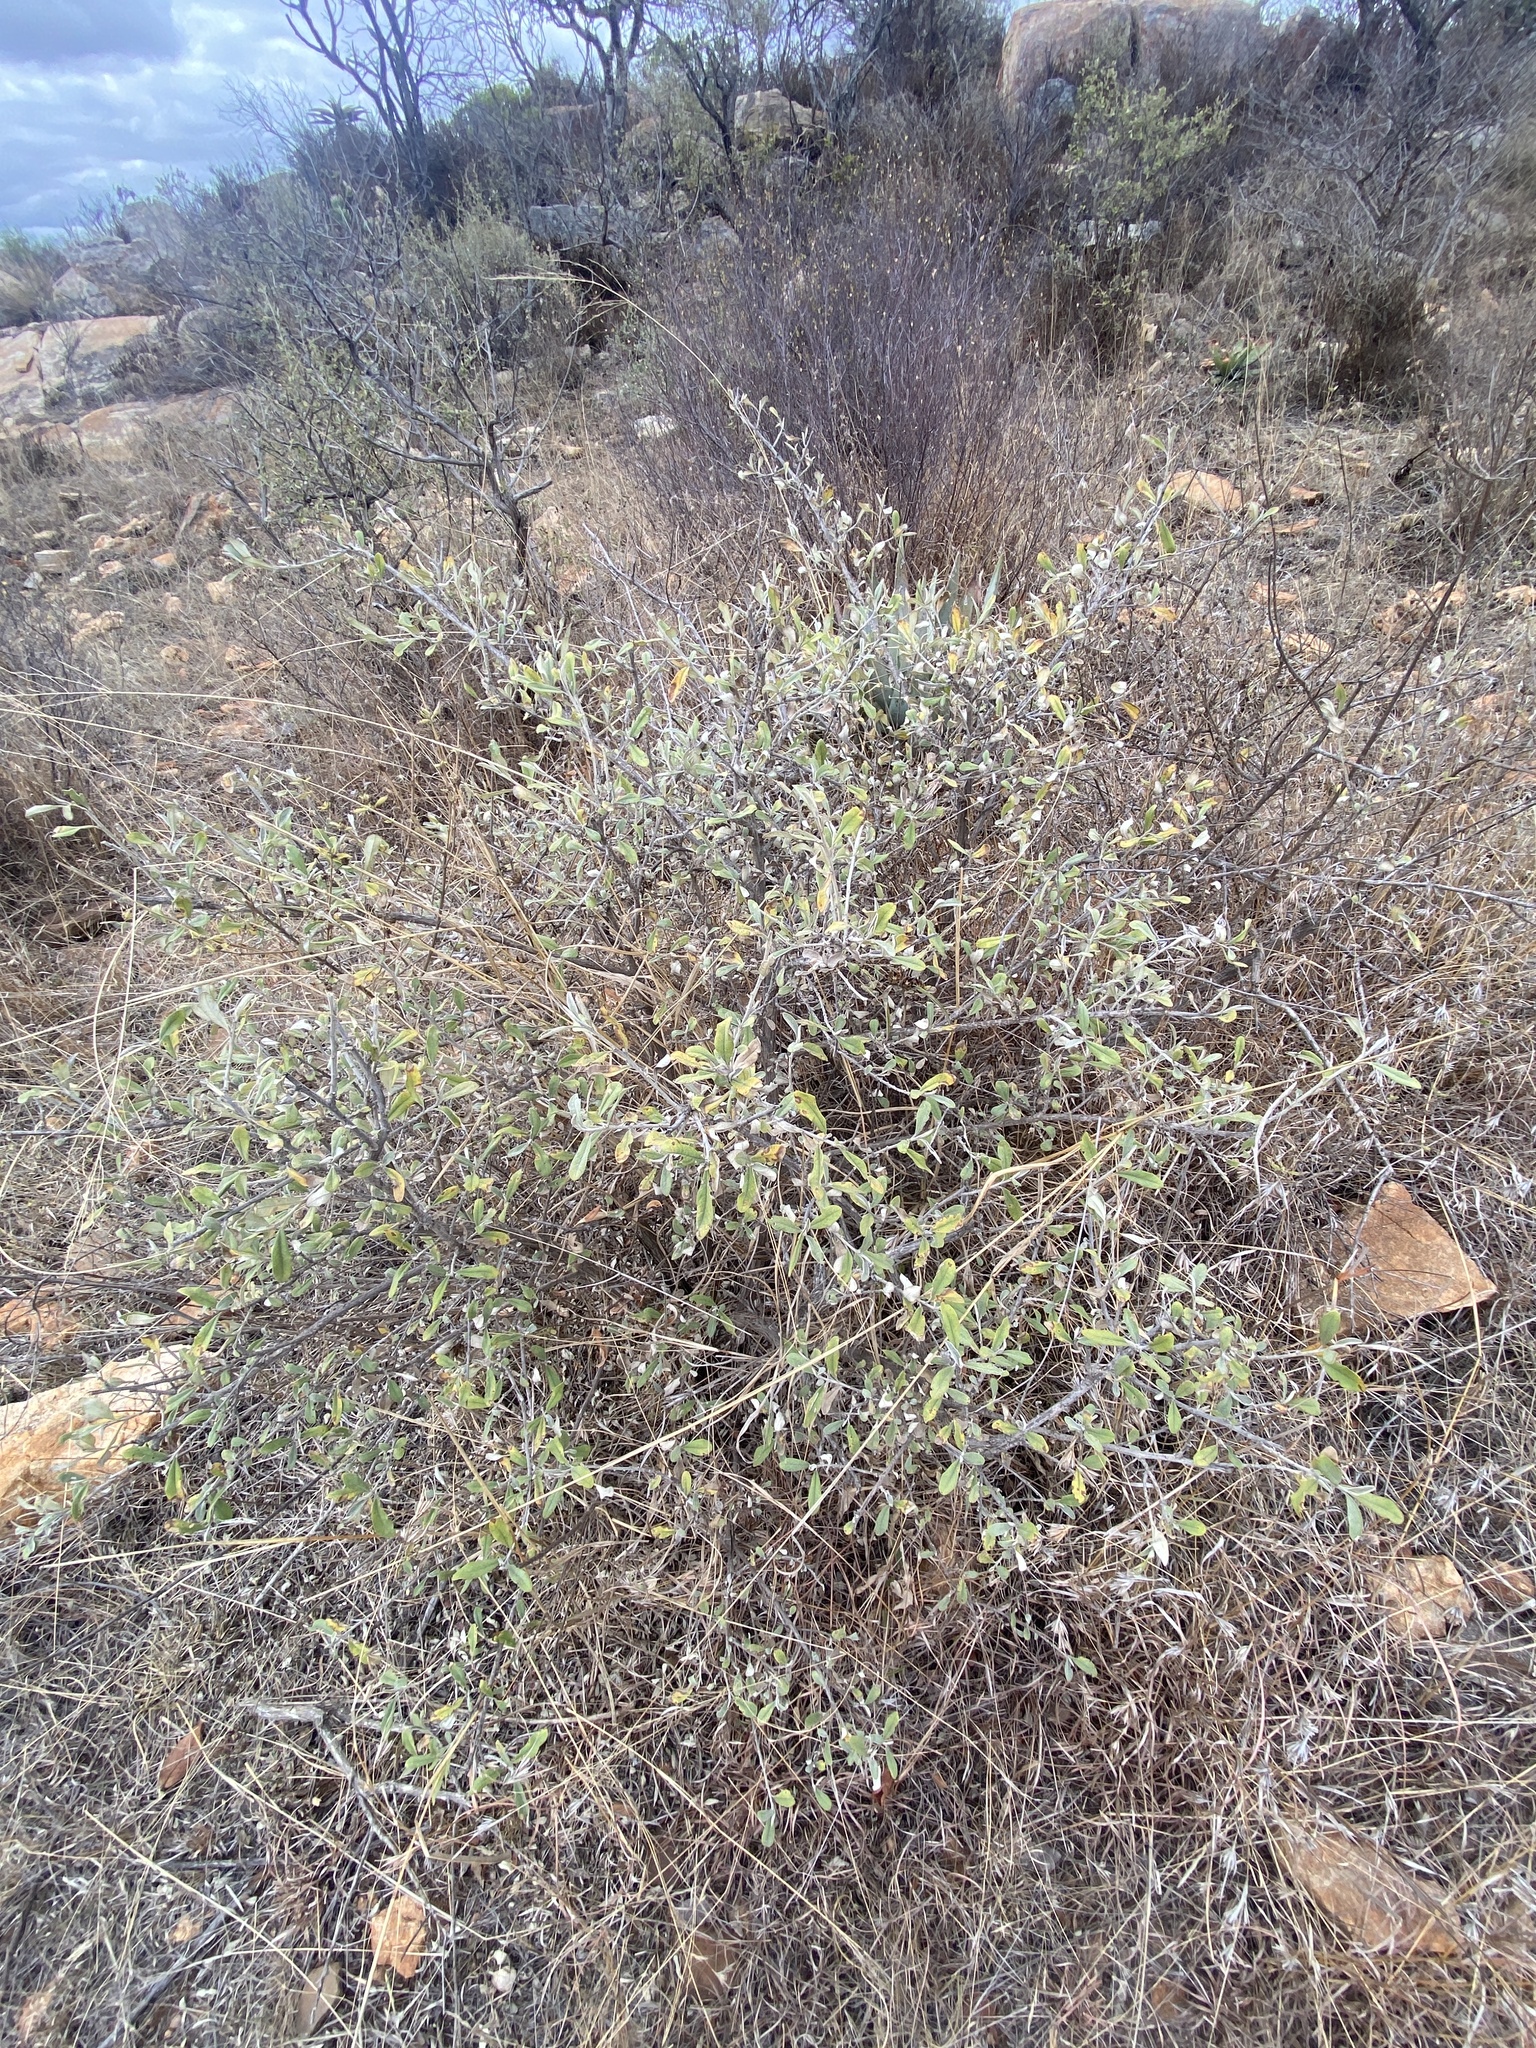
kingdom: Plantae
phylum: Tracheophyta
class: Magnoliopsida
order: Asterales
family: Asteraceae
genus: Tarchonanthus
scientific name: Tarchonanthus camphoratus
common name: Camphorwood
